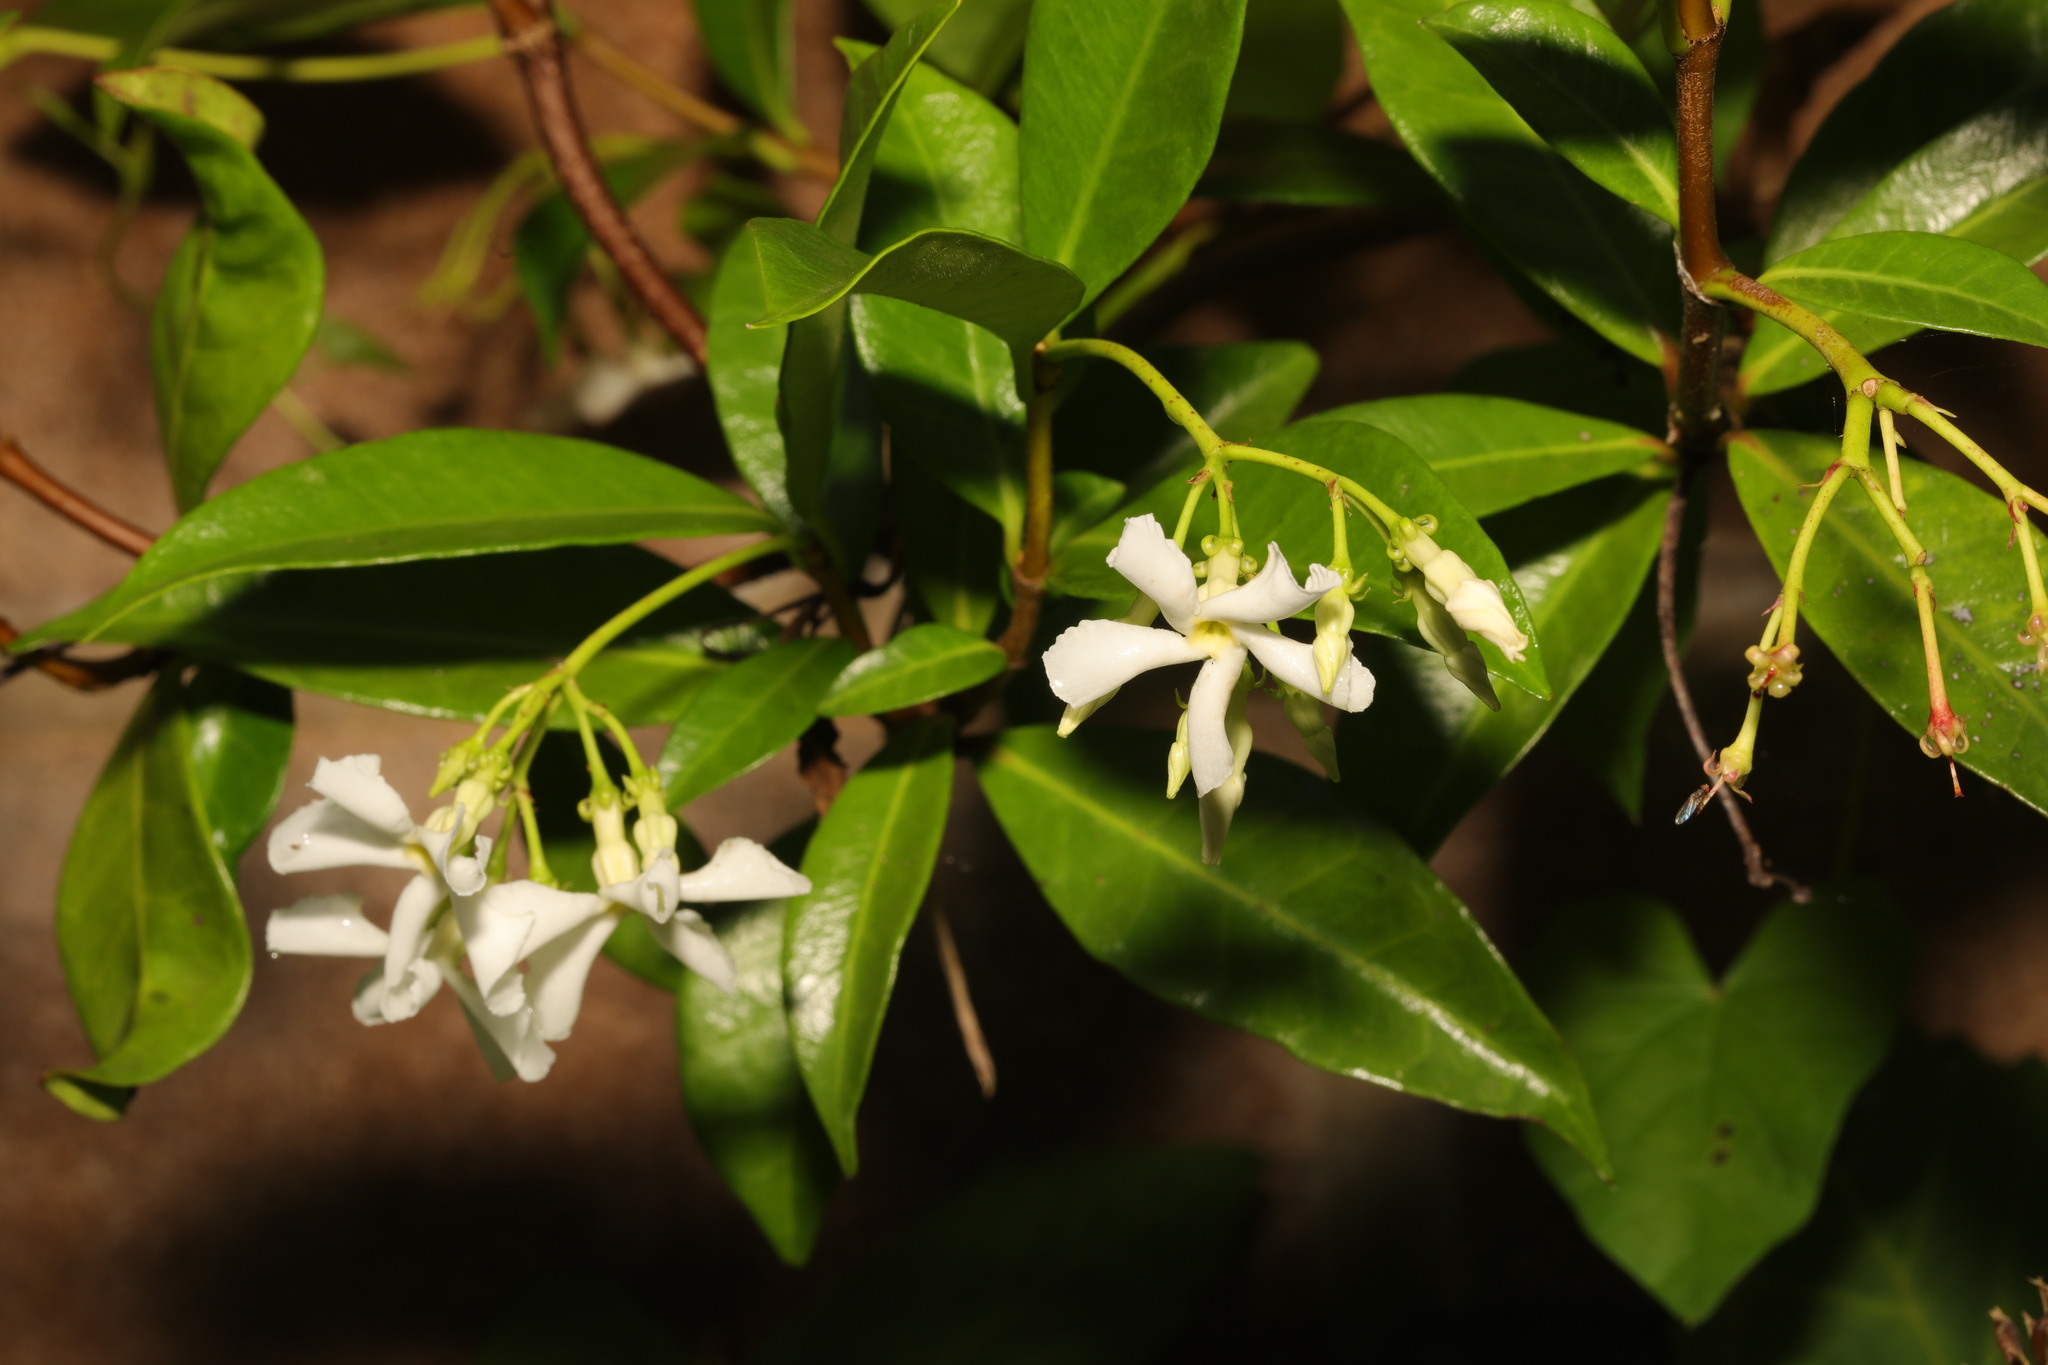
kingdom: Plantae
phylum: Tracheophyta
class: Magnoliopsida
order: Gentianales
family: Apocynaceae
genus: Trachelospermum
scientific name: Trachelospermum jasminoides
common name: Confederate jasmine
